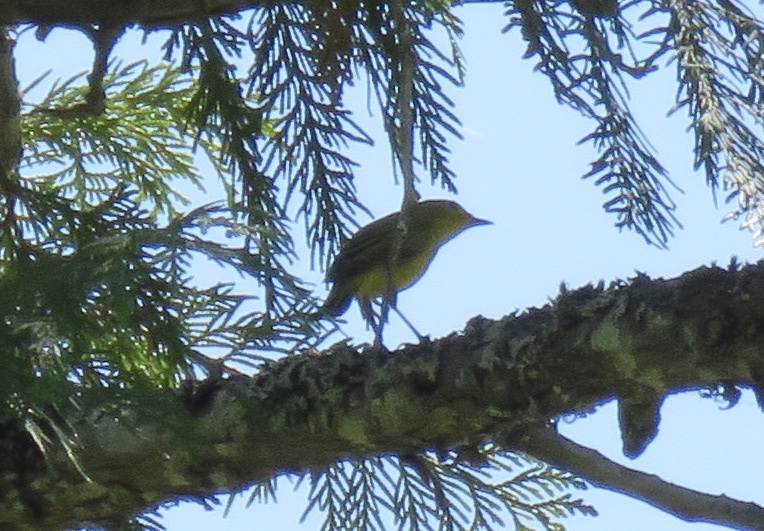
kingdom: Animalia
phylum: Chordata
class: Aves
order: Passeriformes
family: Parulidae
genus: Setophaga
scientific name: Setophaga petechia
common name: Yellow warbler
